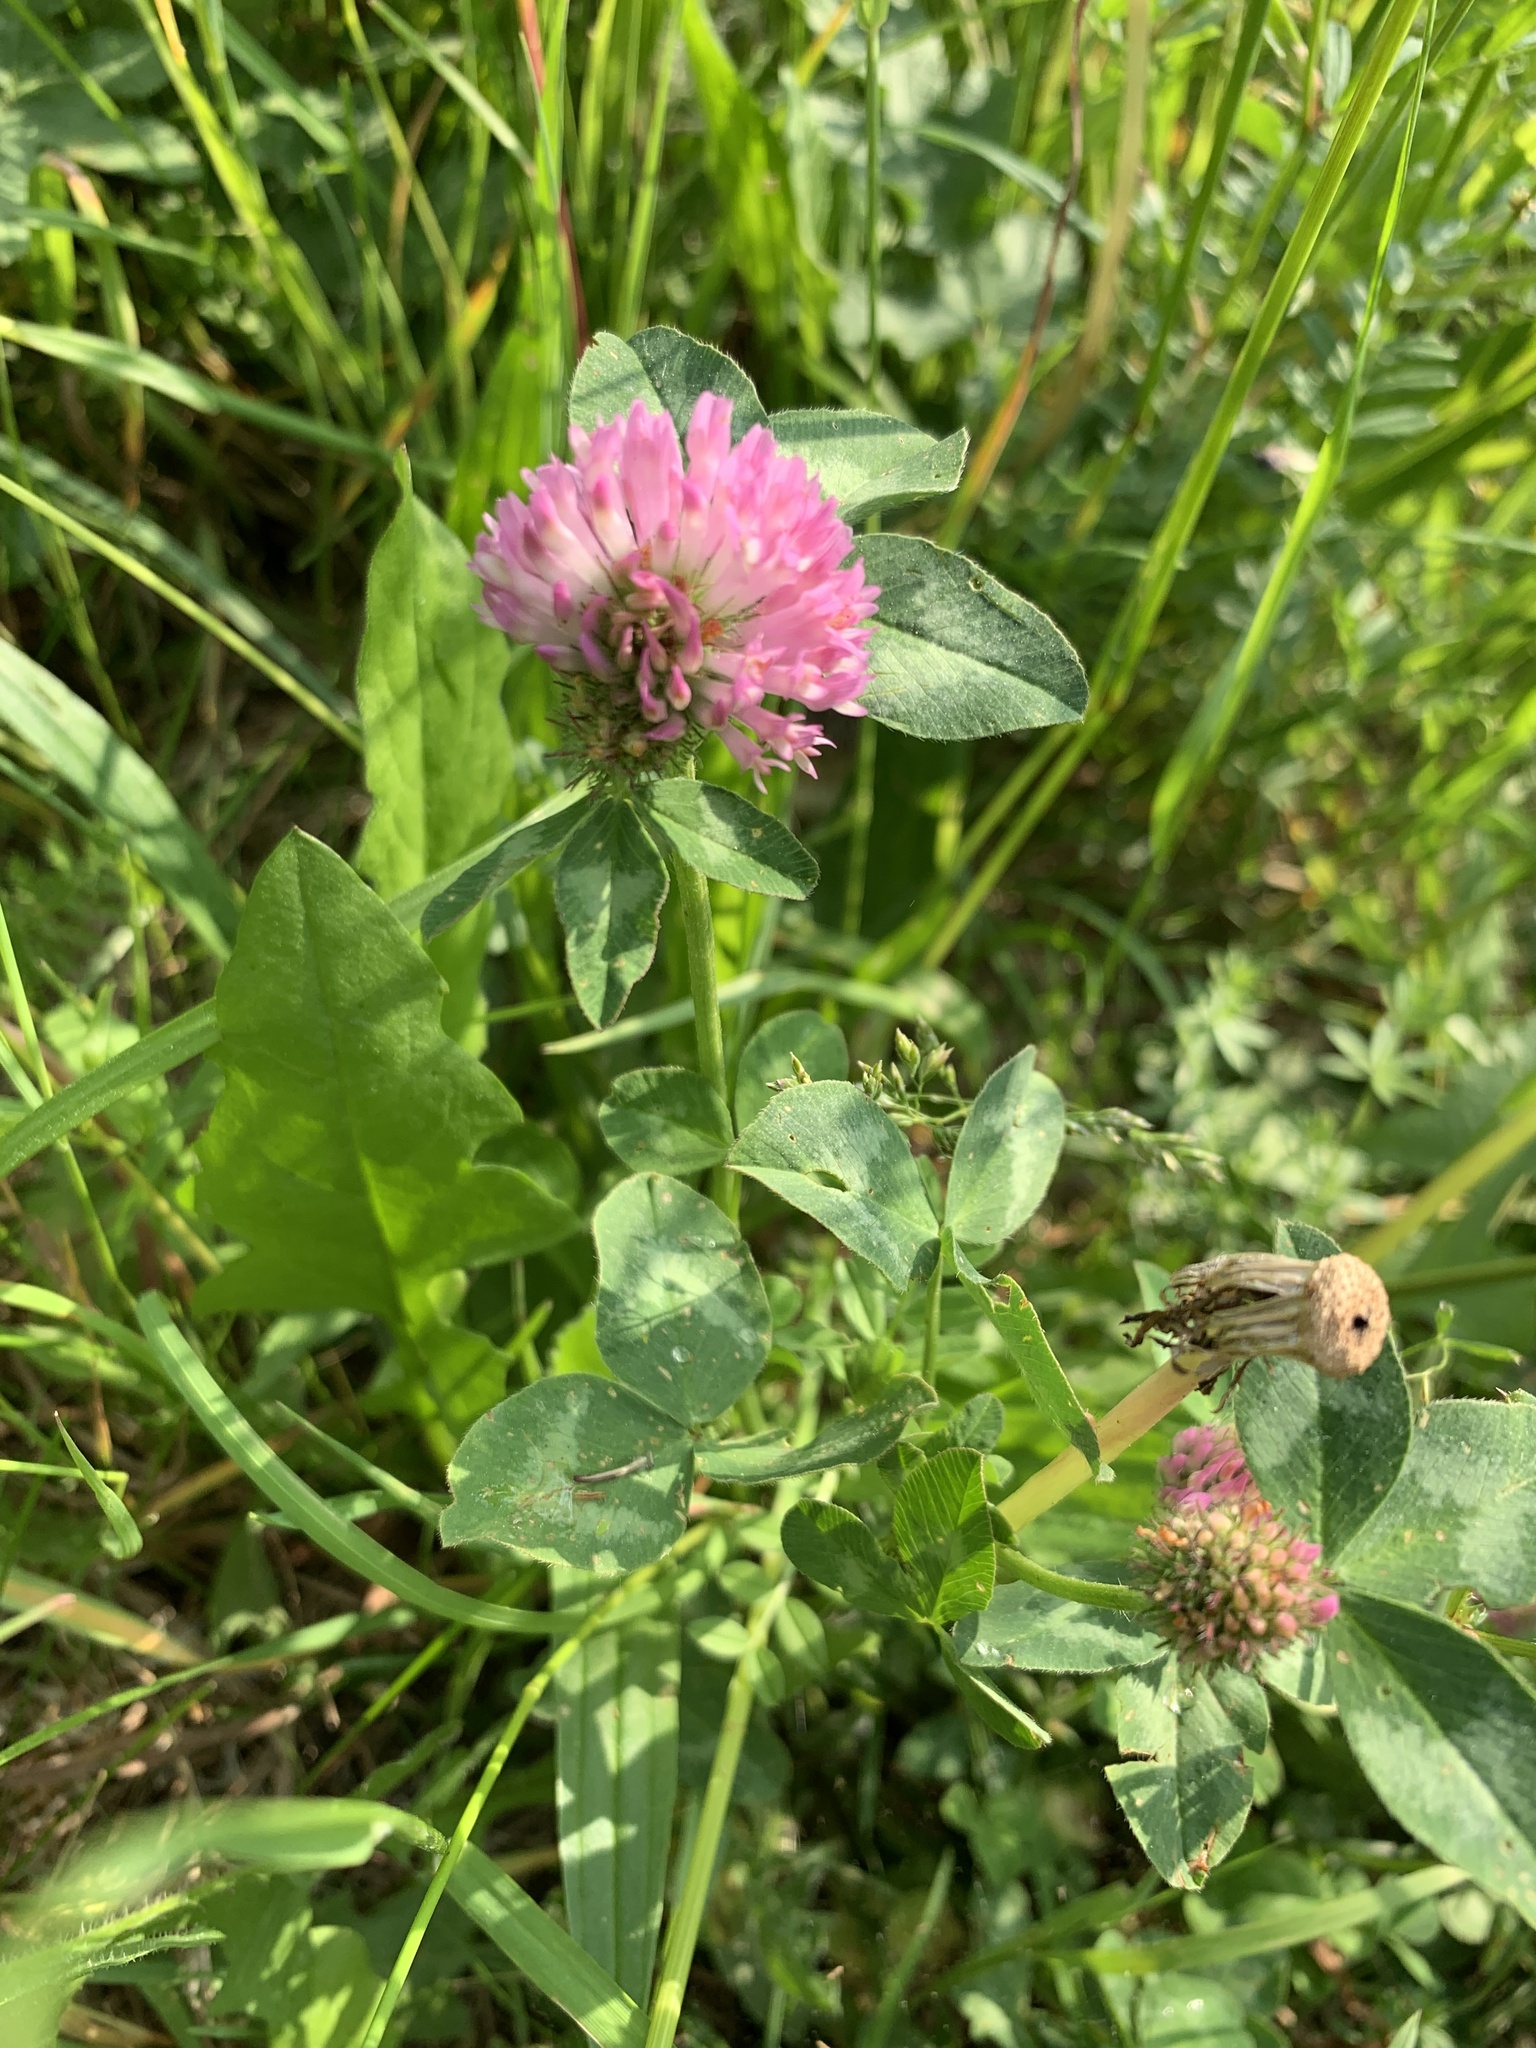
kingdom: Plantae
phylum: Tracheophyta
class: Magnoliopsida
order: Fabales
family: Fabaceae
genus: Trifolium
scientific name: Trifolium pratense
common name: Red clover
